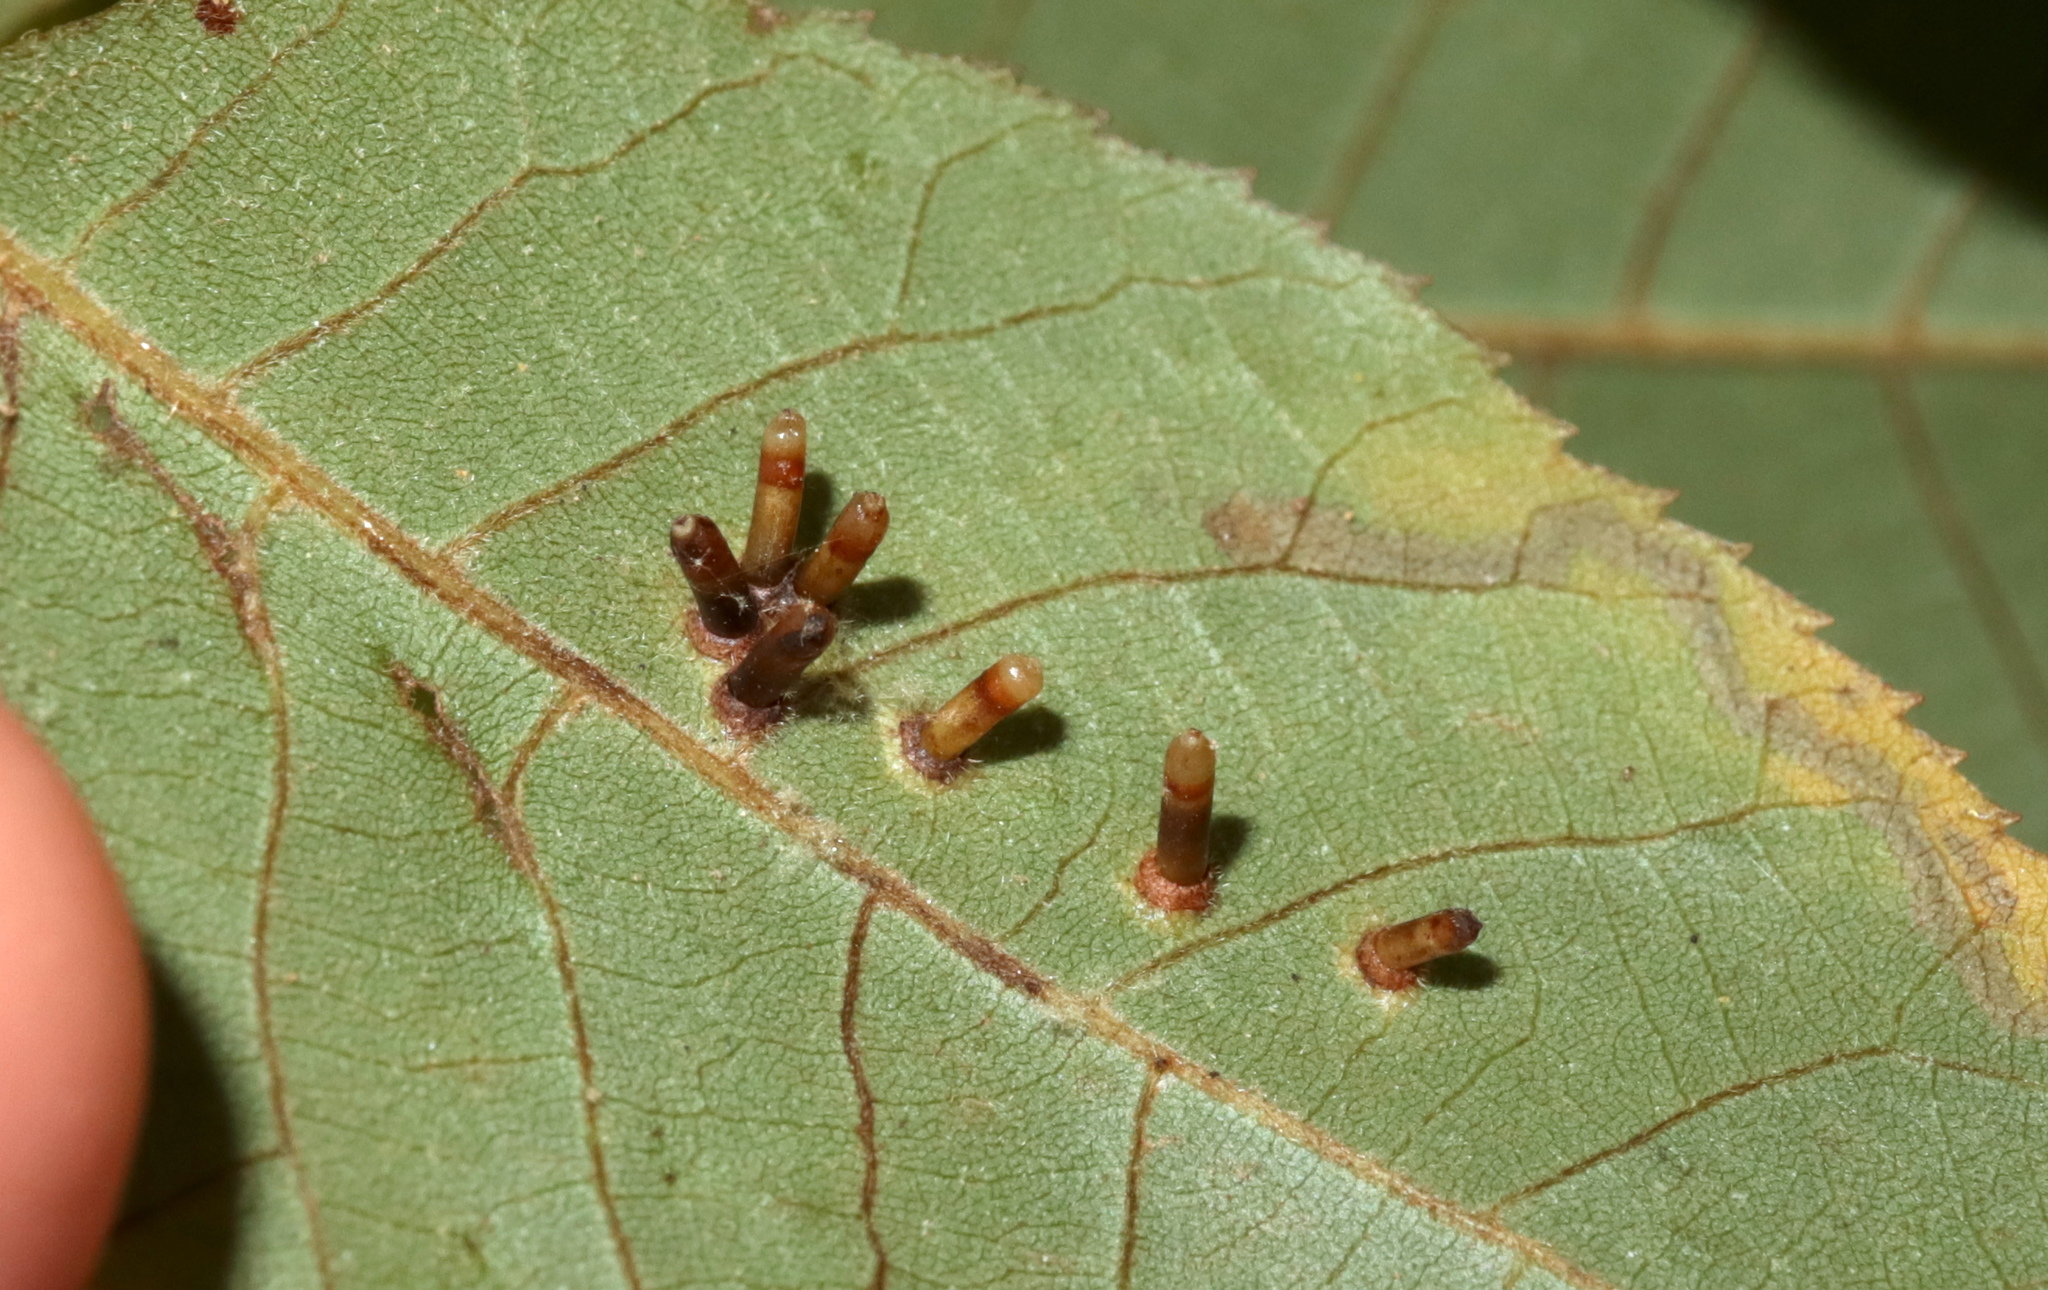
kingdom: Animalia
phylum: Arthropoda
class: Insecta
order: Diptera
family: Cecidomyiidae
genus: Caryomyia
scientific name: Caryomyia tubicola
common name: Hickory bullet gall midge
